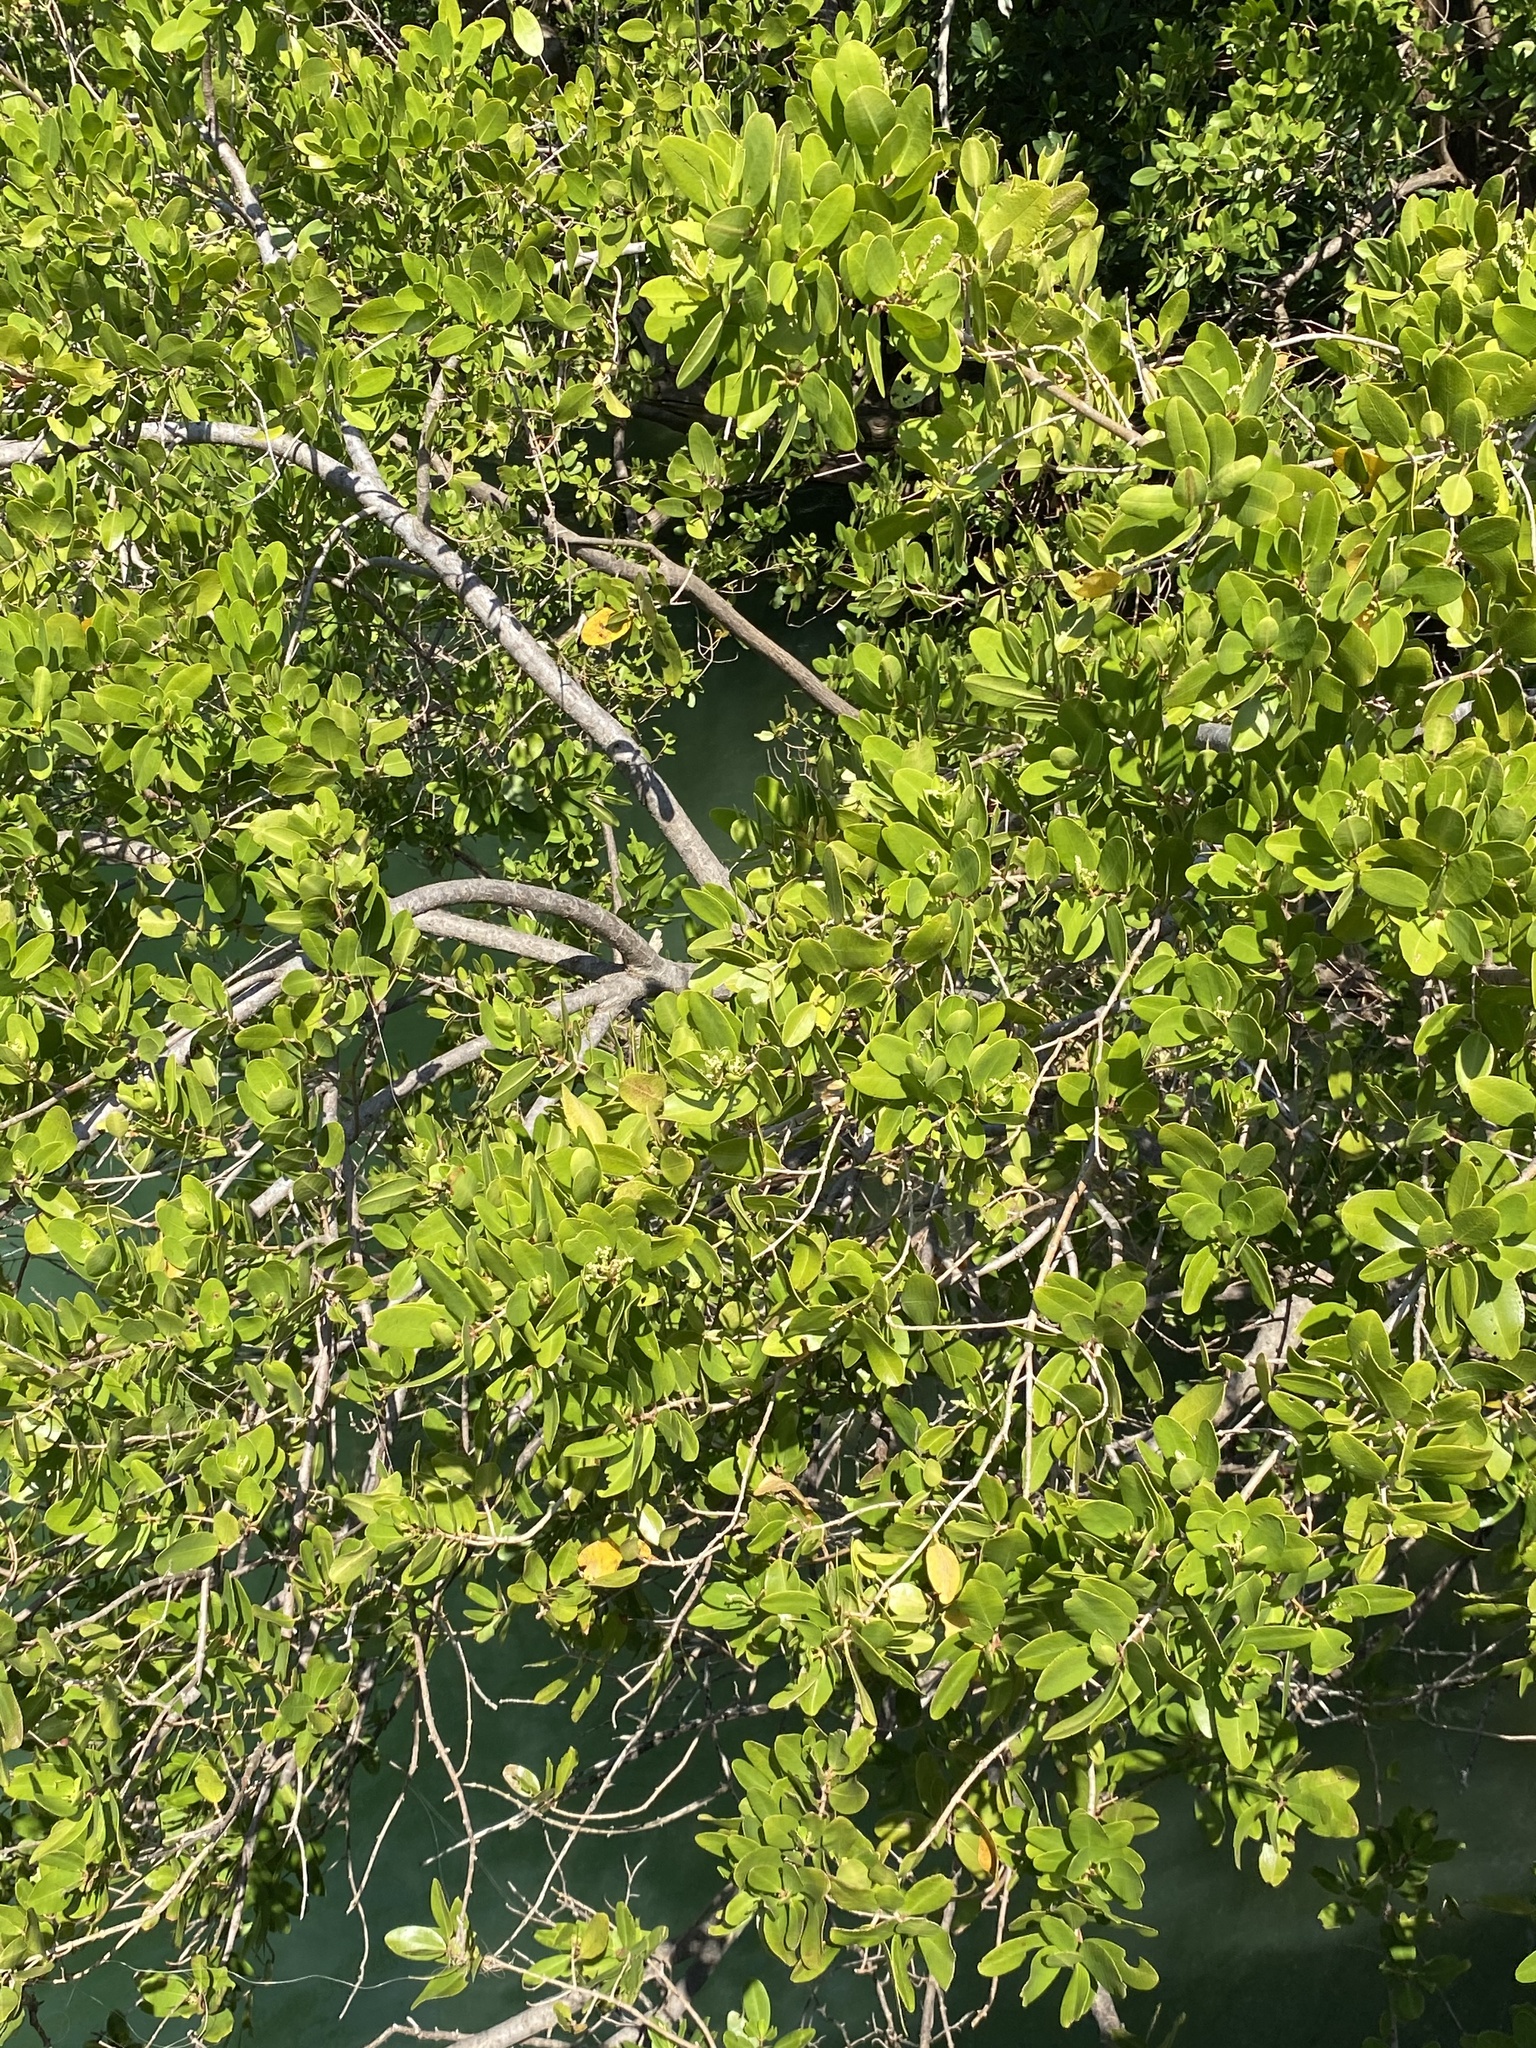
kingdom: Plantae
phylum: Tracheophyta
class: Magnoliopsida
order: Myrtales
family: Combretaceae
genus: Laguncularia
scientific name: Laguncularia racemosa
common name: White mangrove
